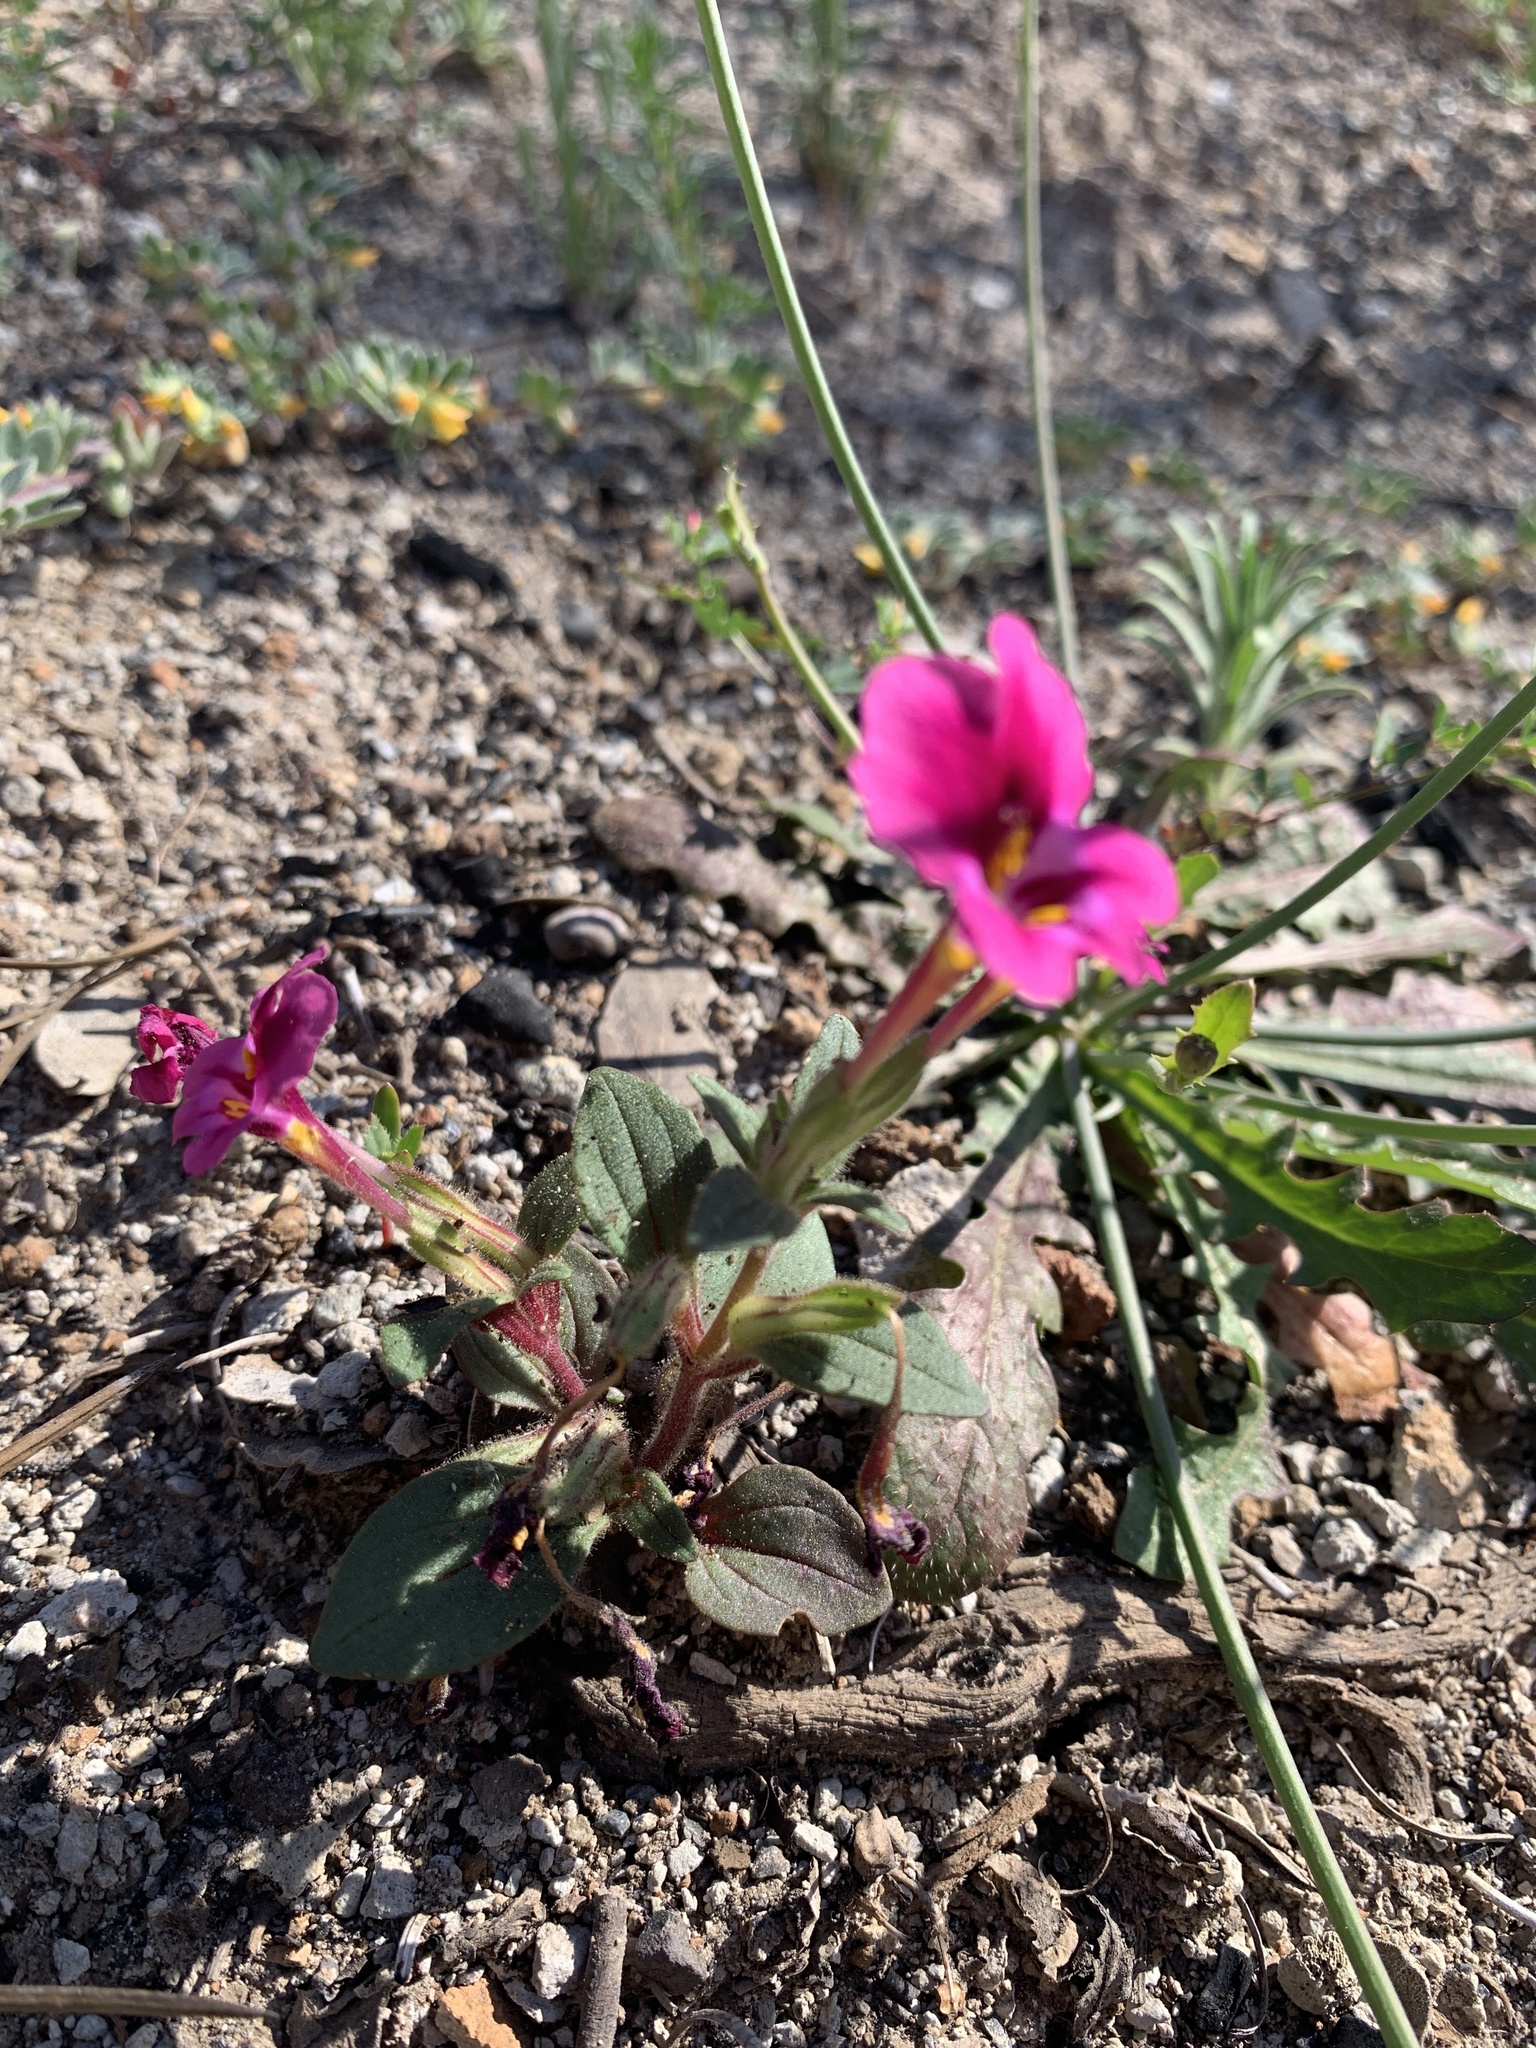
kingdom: Plantae
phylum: Tracheophyta
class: Magnoliopsida
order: Lamiales
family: Phrymaceae
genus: Diplacus
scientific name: Diplacus kelloggii
